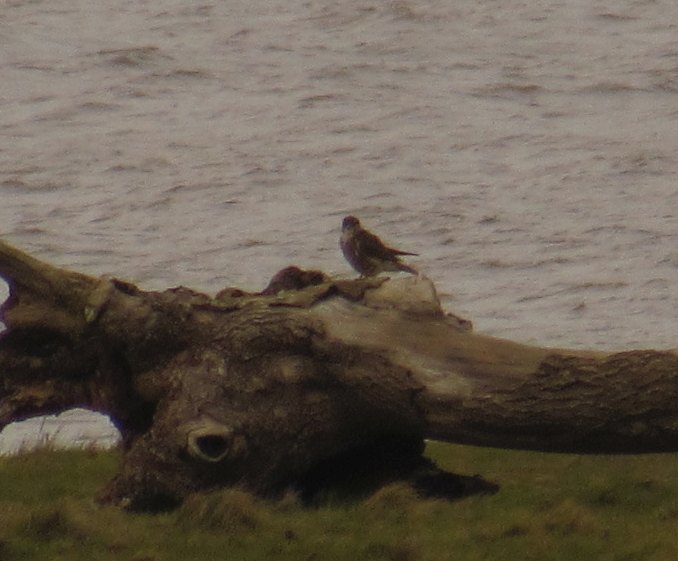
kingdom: Animalia
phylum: Chordata
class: Aves
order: Falconiformes
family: Falconidae
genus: Falco
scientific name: Falco columbarius
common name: Merlin
